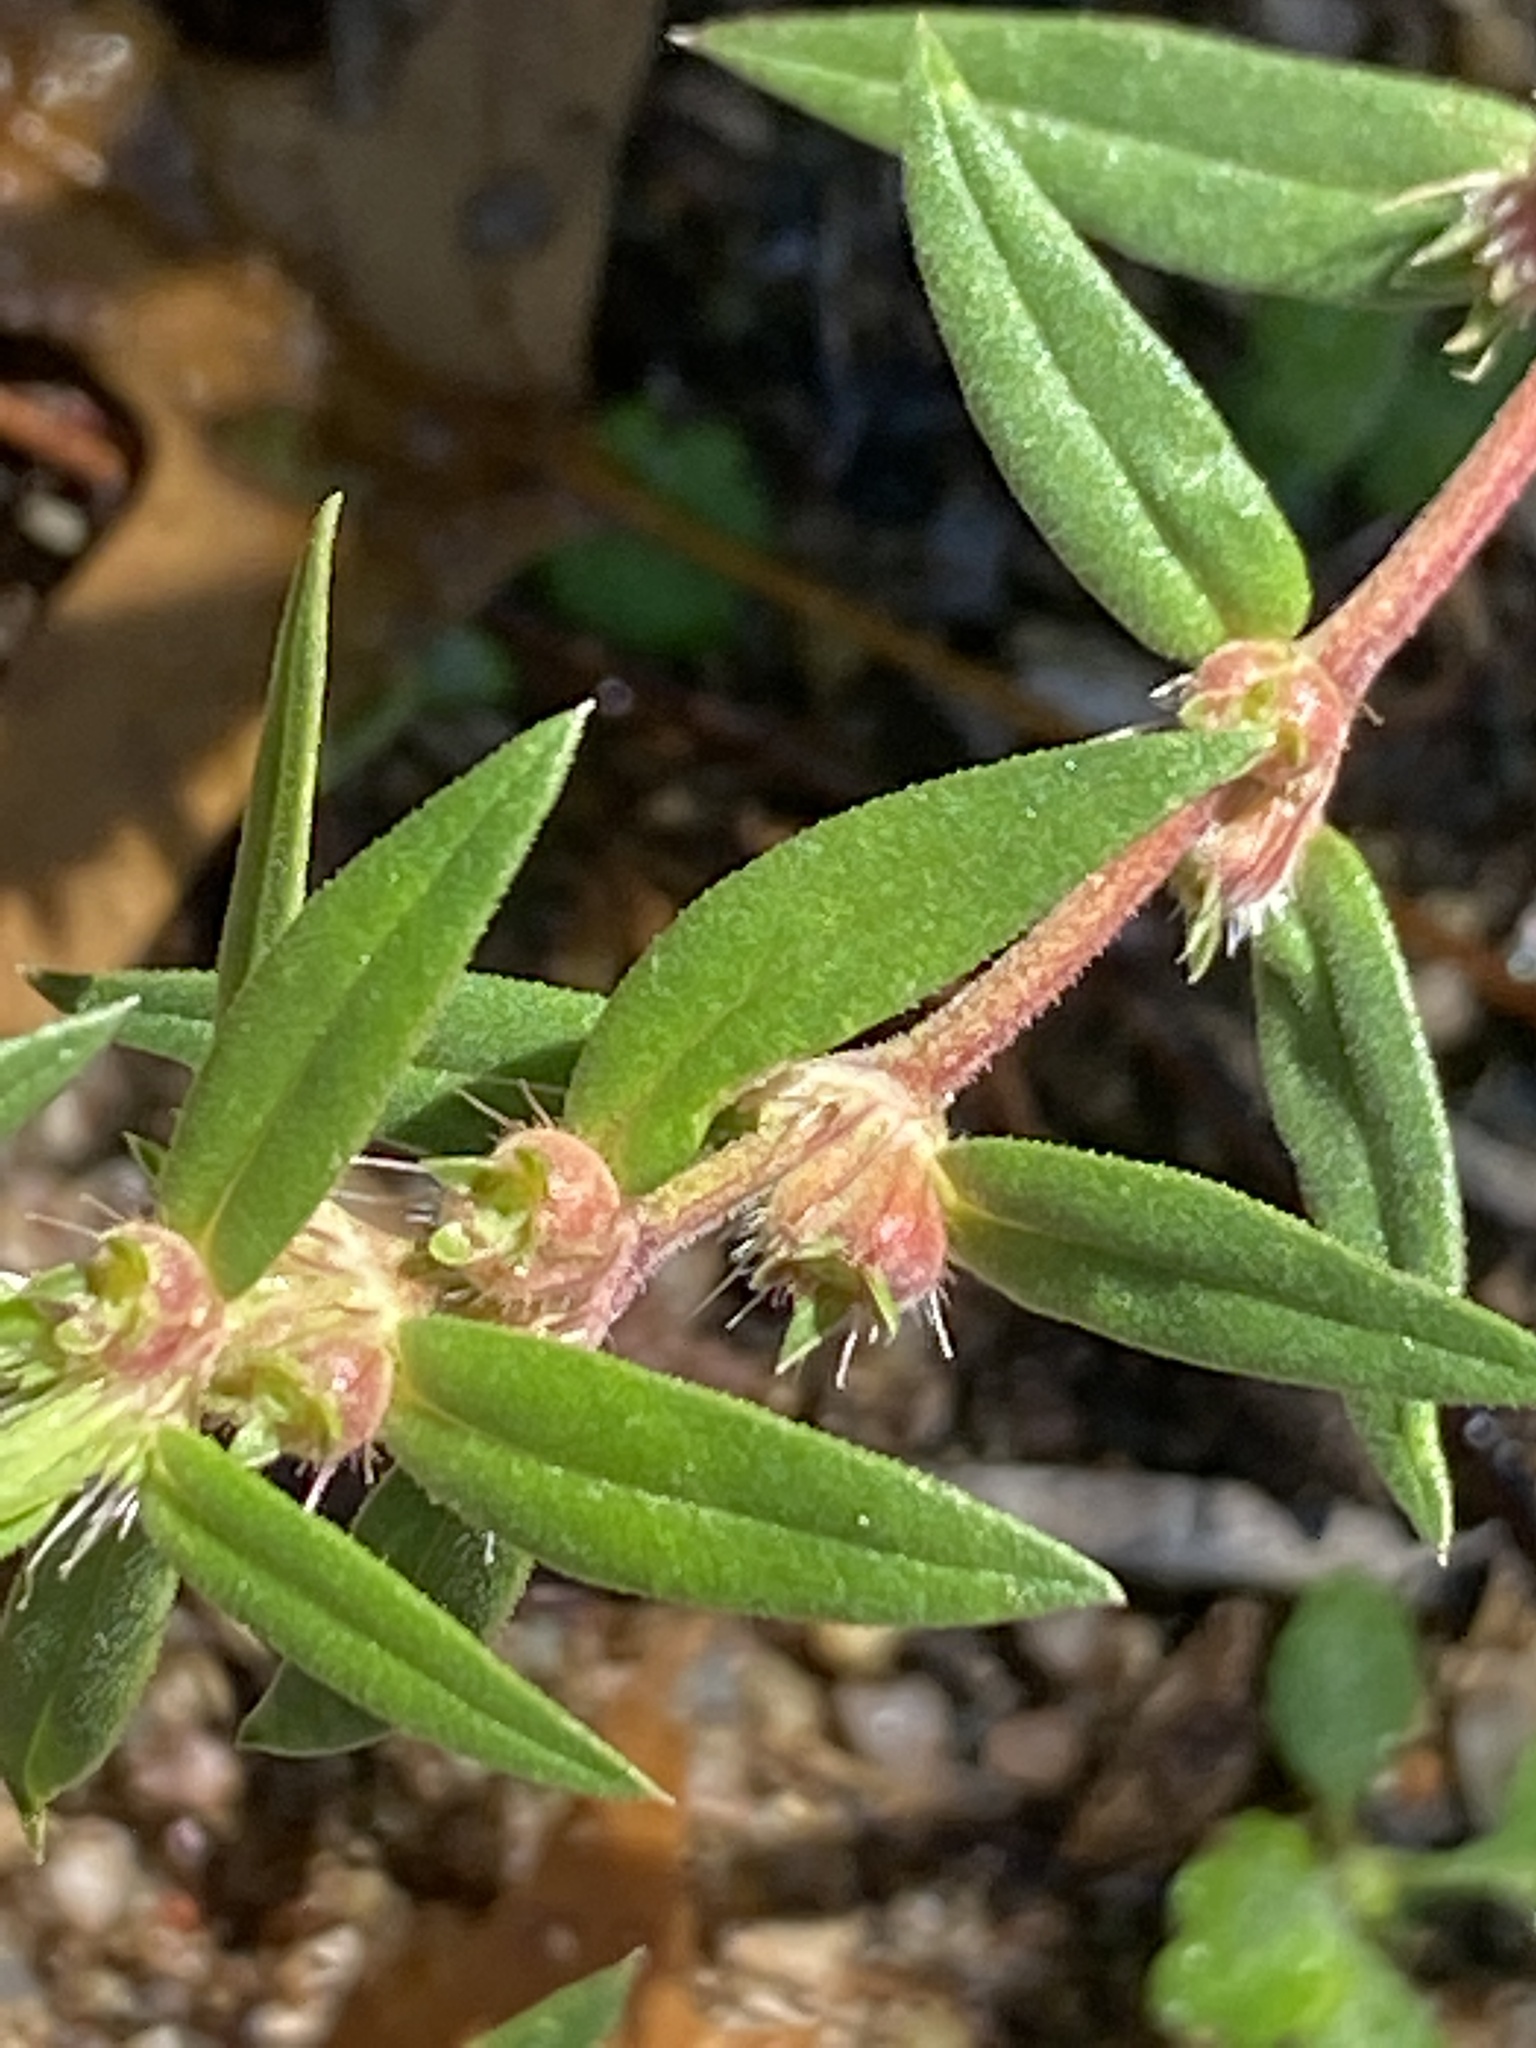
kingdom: Plantae
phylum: Tracheophyta
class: Magnoliopsida
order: Gentianales
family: Rubiaceae
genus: Hexasepalum
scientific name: Hexasepalum teres
